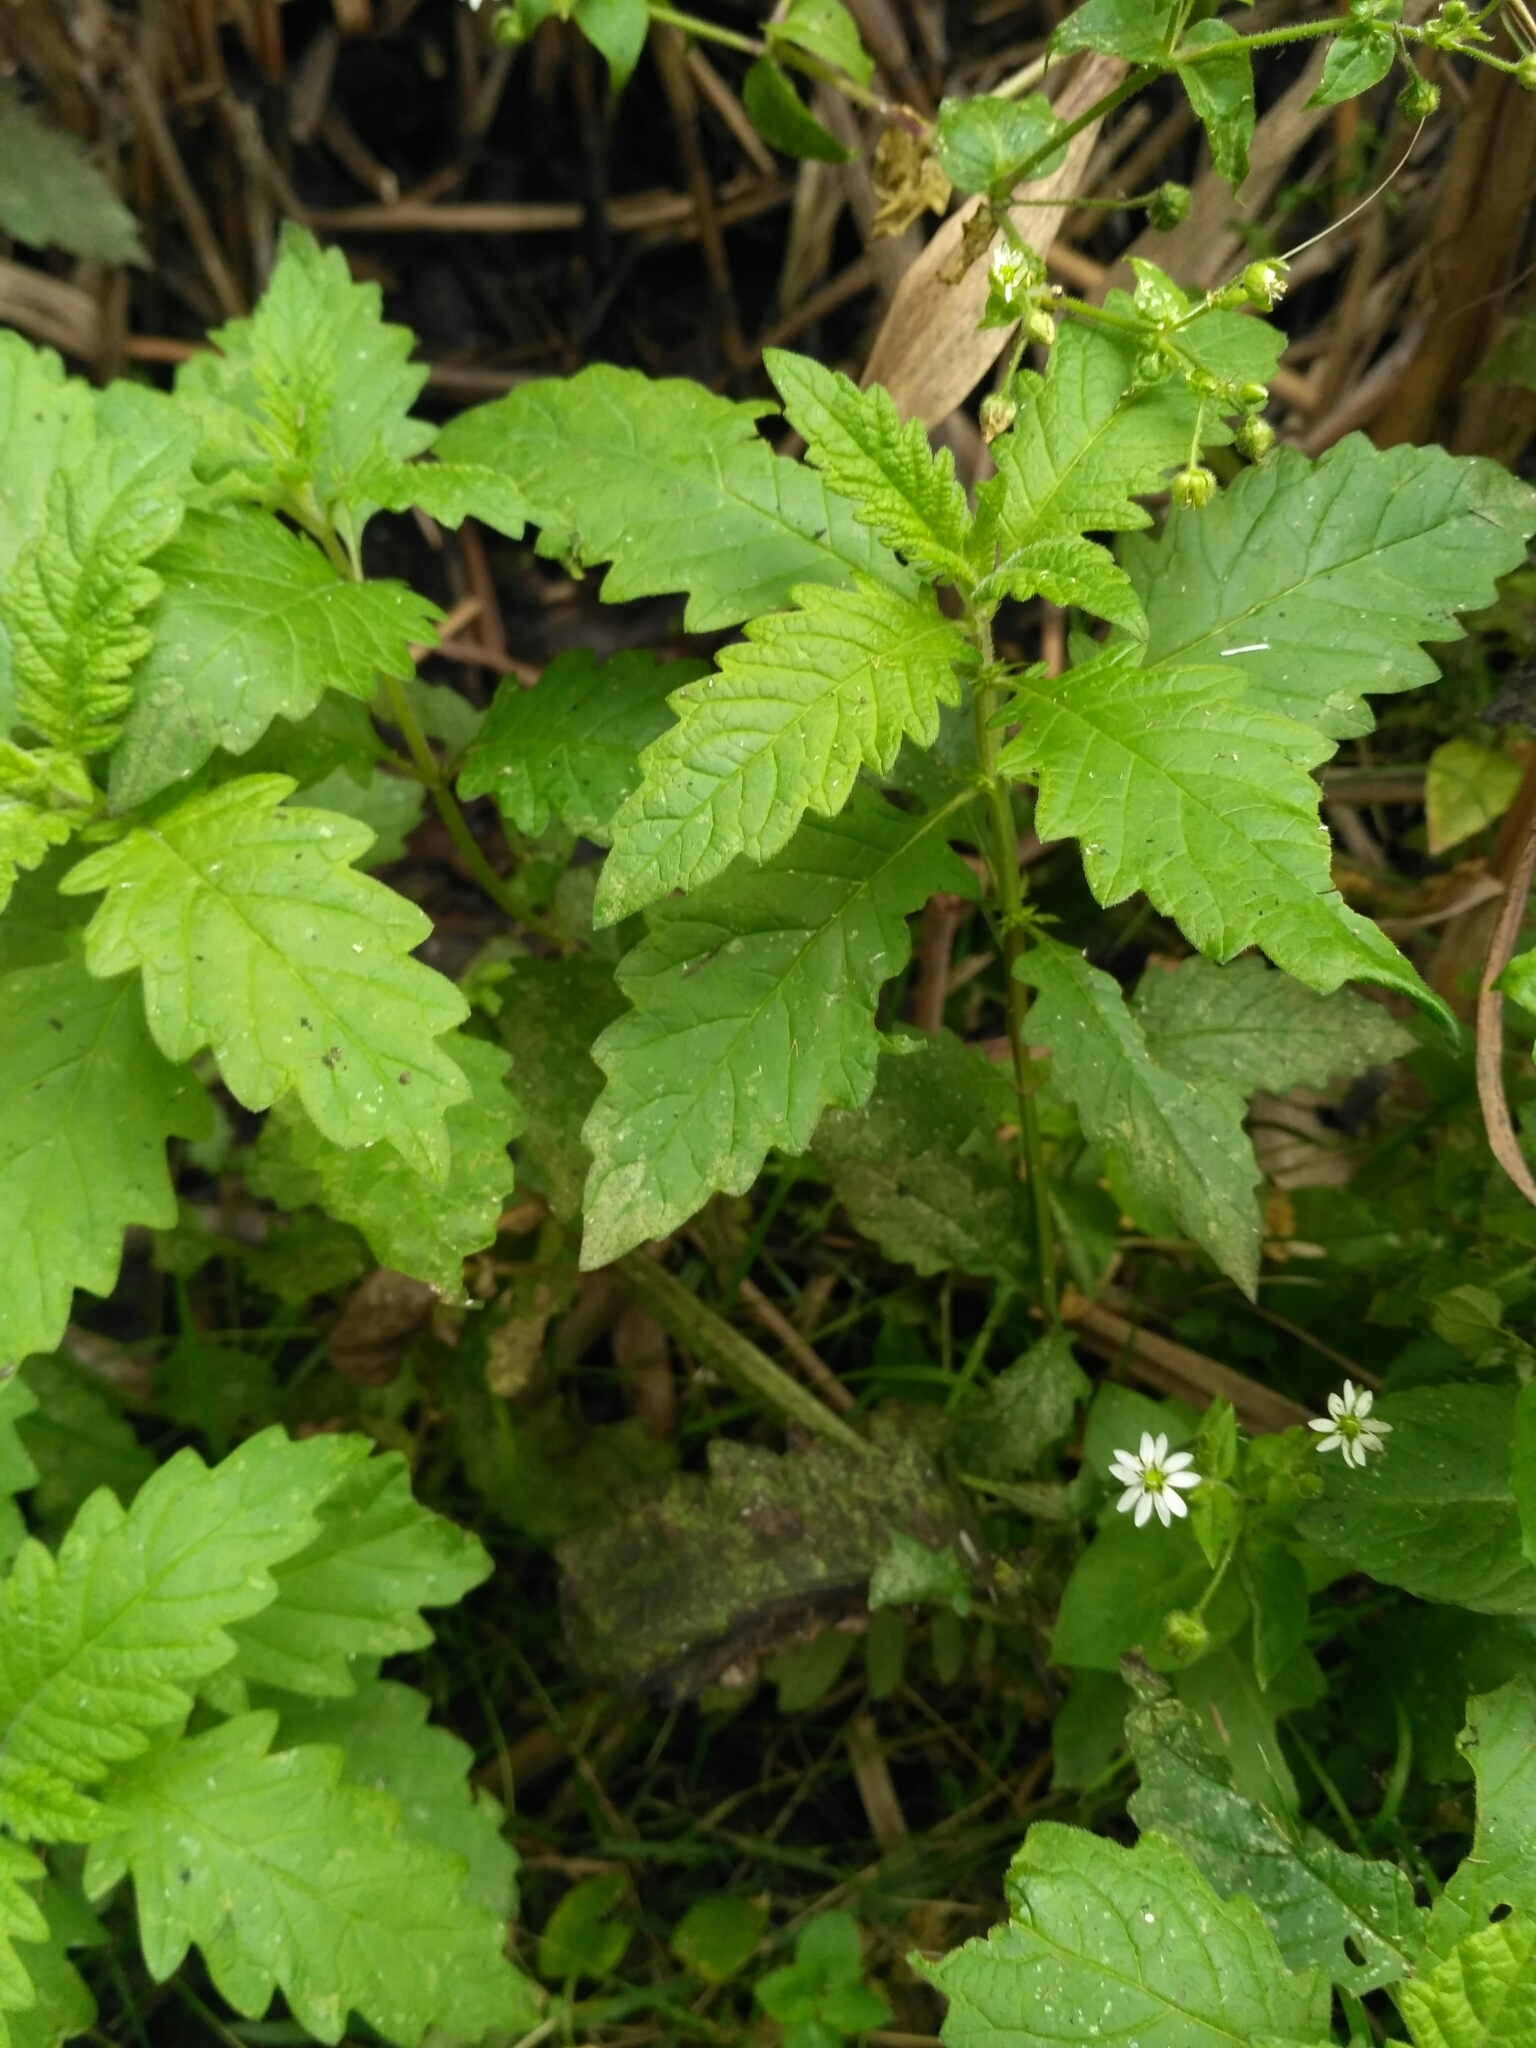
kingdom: Plantae
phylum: Tracheophyta
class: Magnoliopsida
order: Lamiales
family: Lamiaceae
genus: Lycopus
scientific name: Lycopus europaeus
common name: European bugleweed
